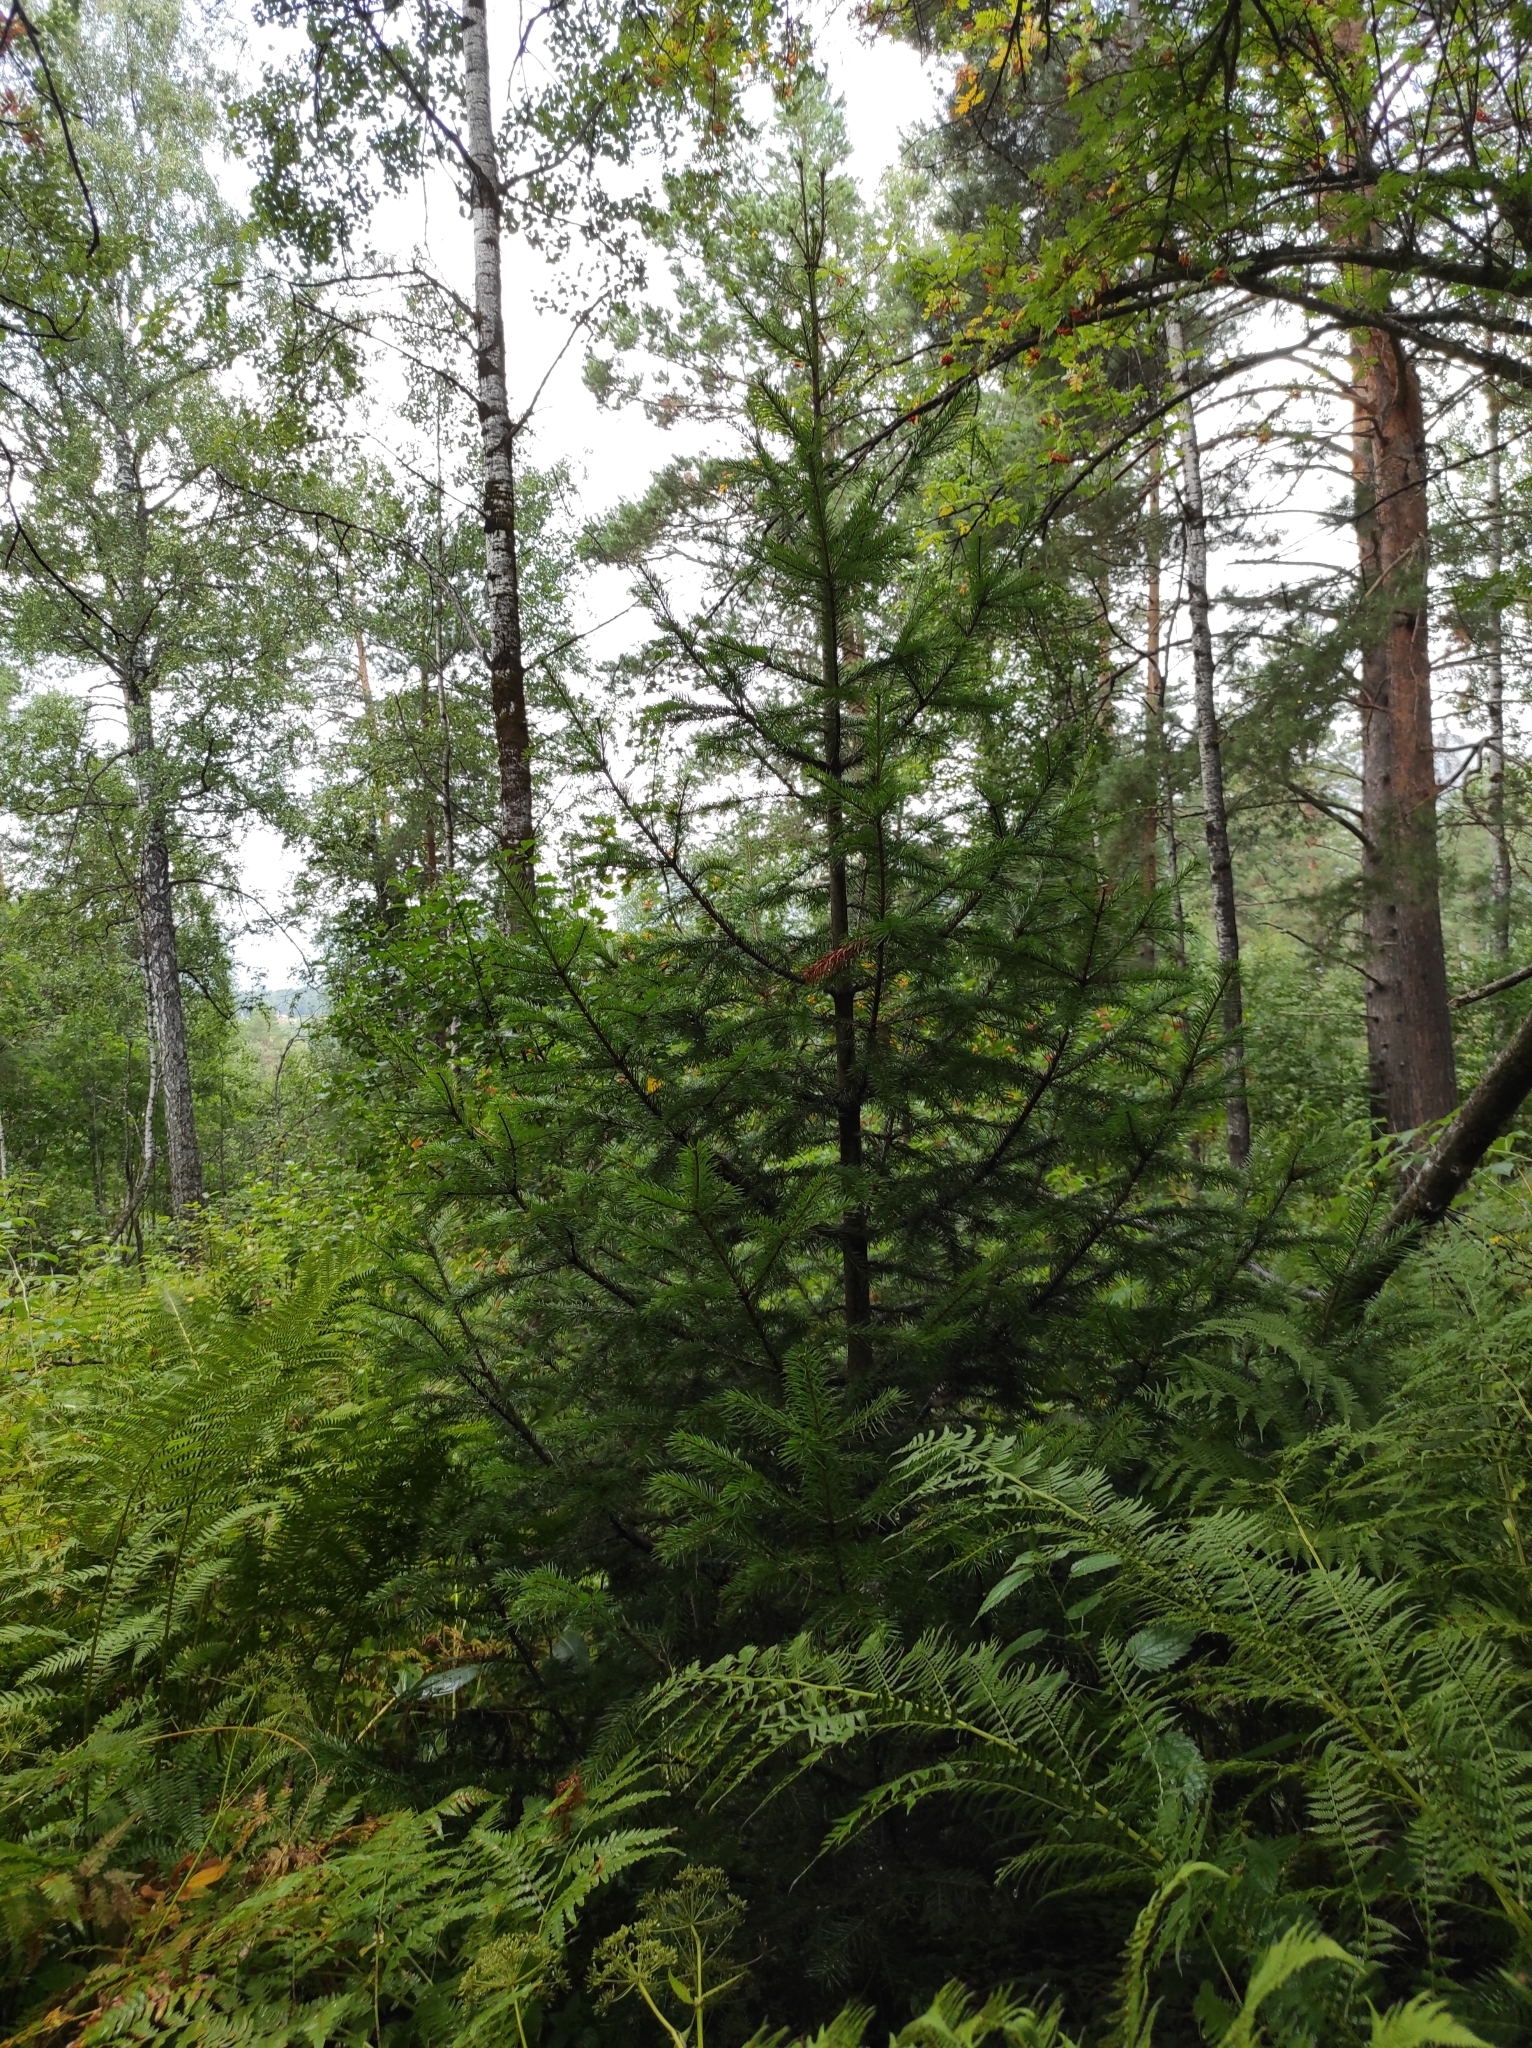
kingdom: Plantae
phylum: Tracheophyta
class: Pinopsida
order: Pinales
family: Pinaceae
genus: Abies
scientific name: Abies sibirica
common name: Siberian fir
